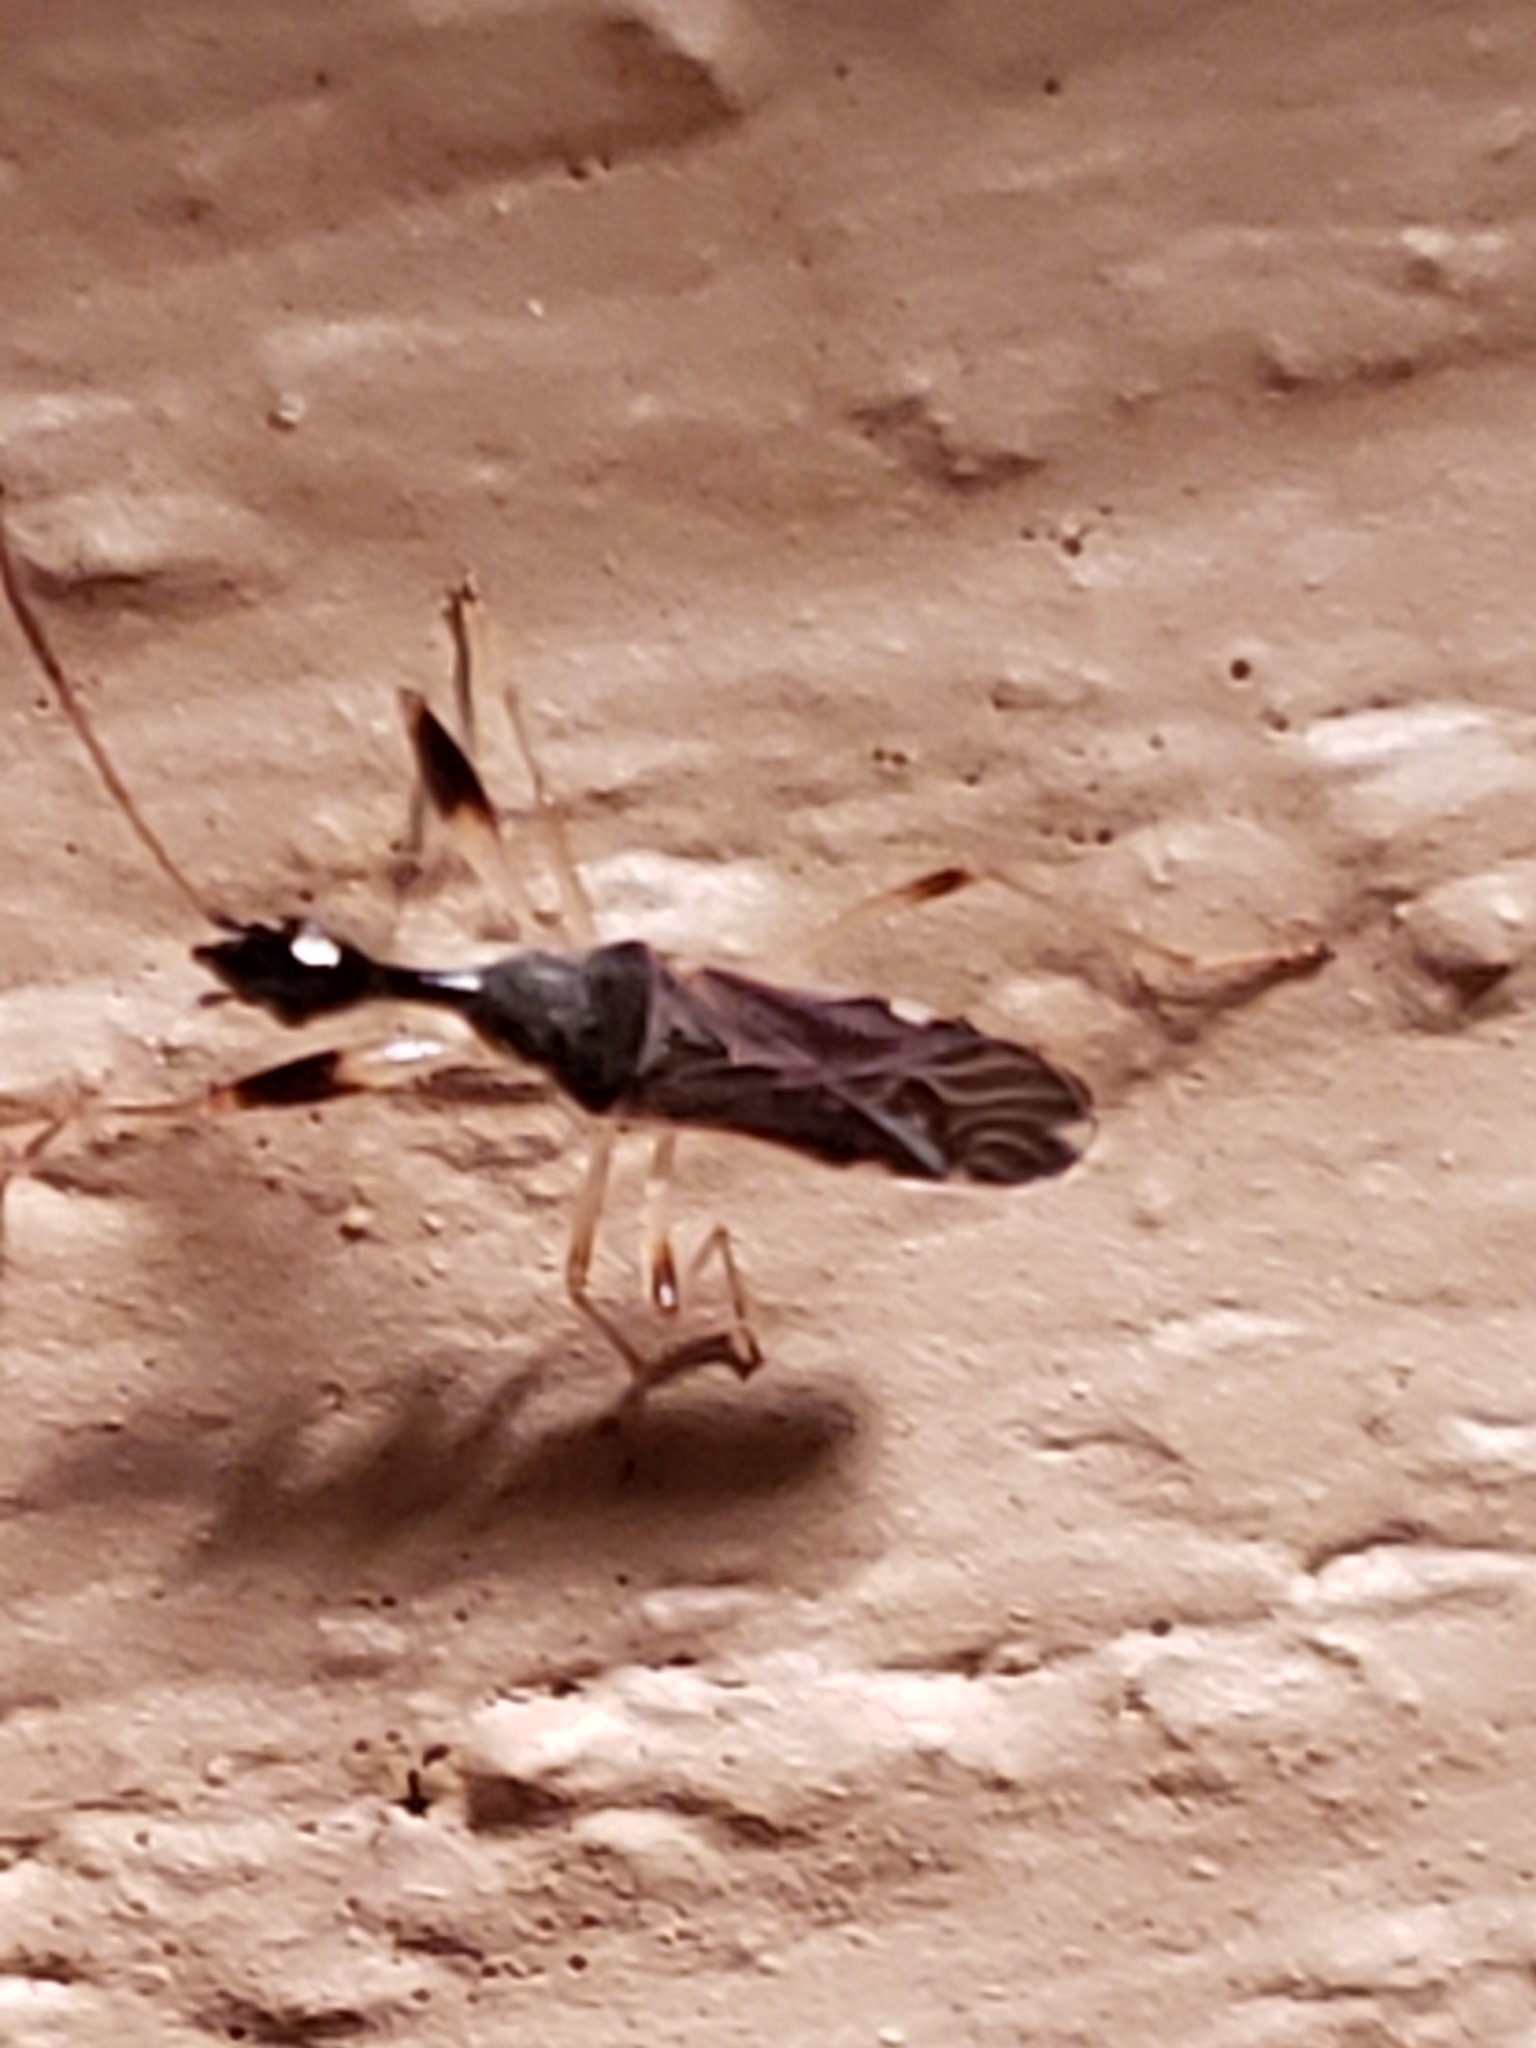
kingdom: Animalia
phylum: Arthropoda
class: Insecta
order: Hemiptera
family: Rhyparochromidae
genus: Myodocha
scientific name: Myodocha serripes
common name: Long-necked seed bug
